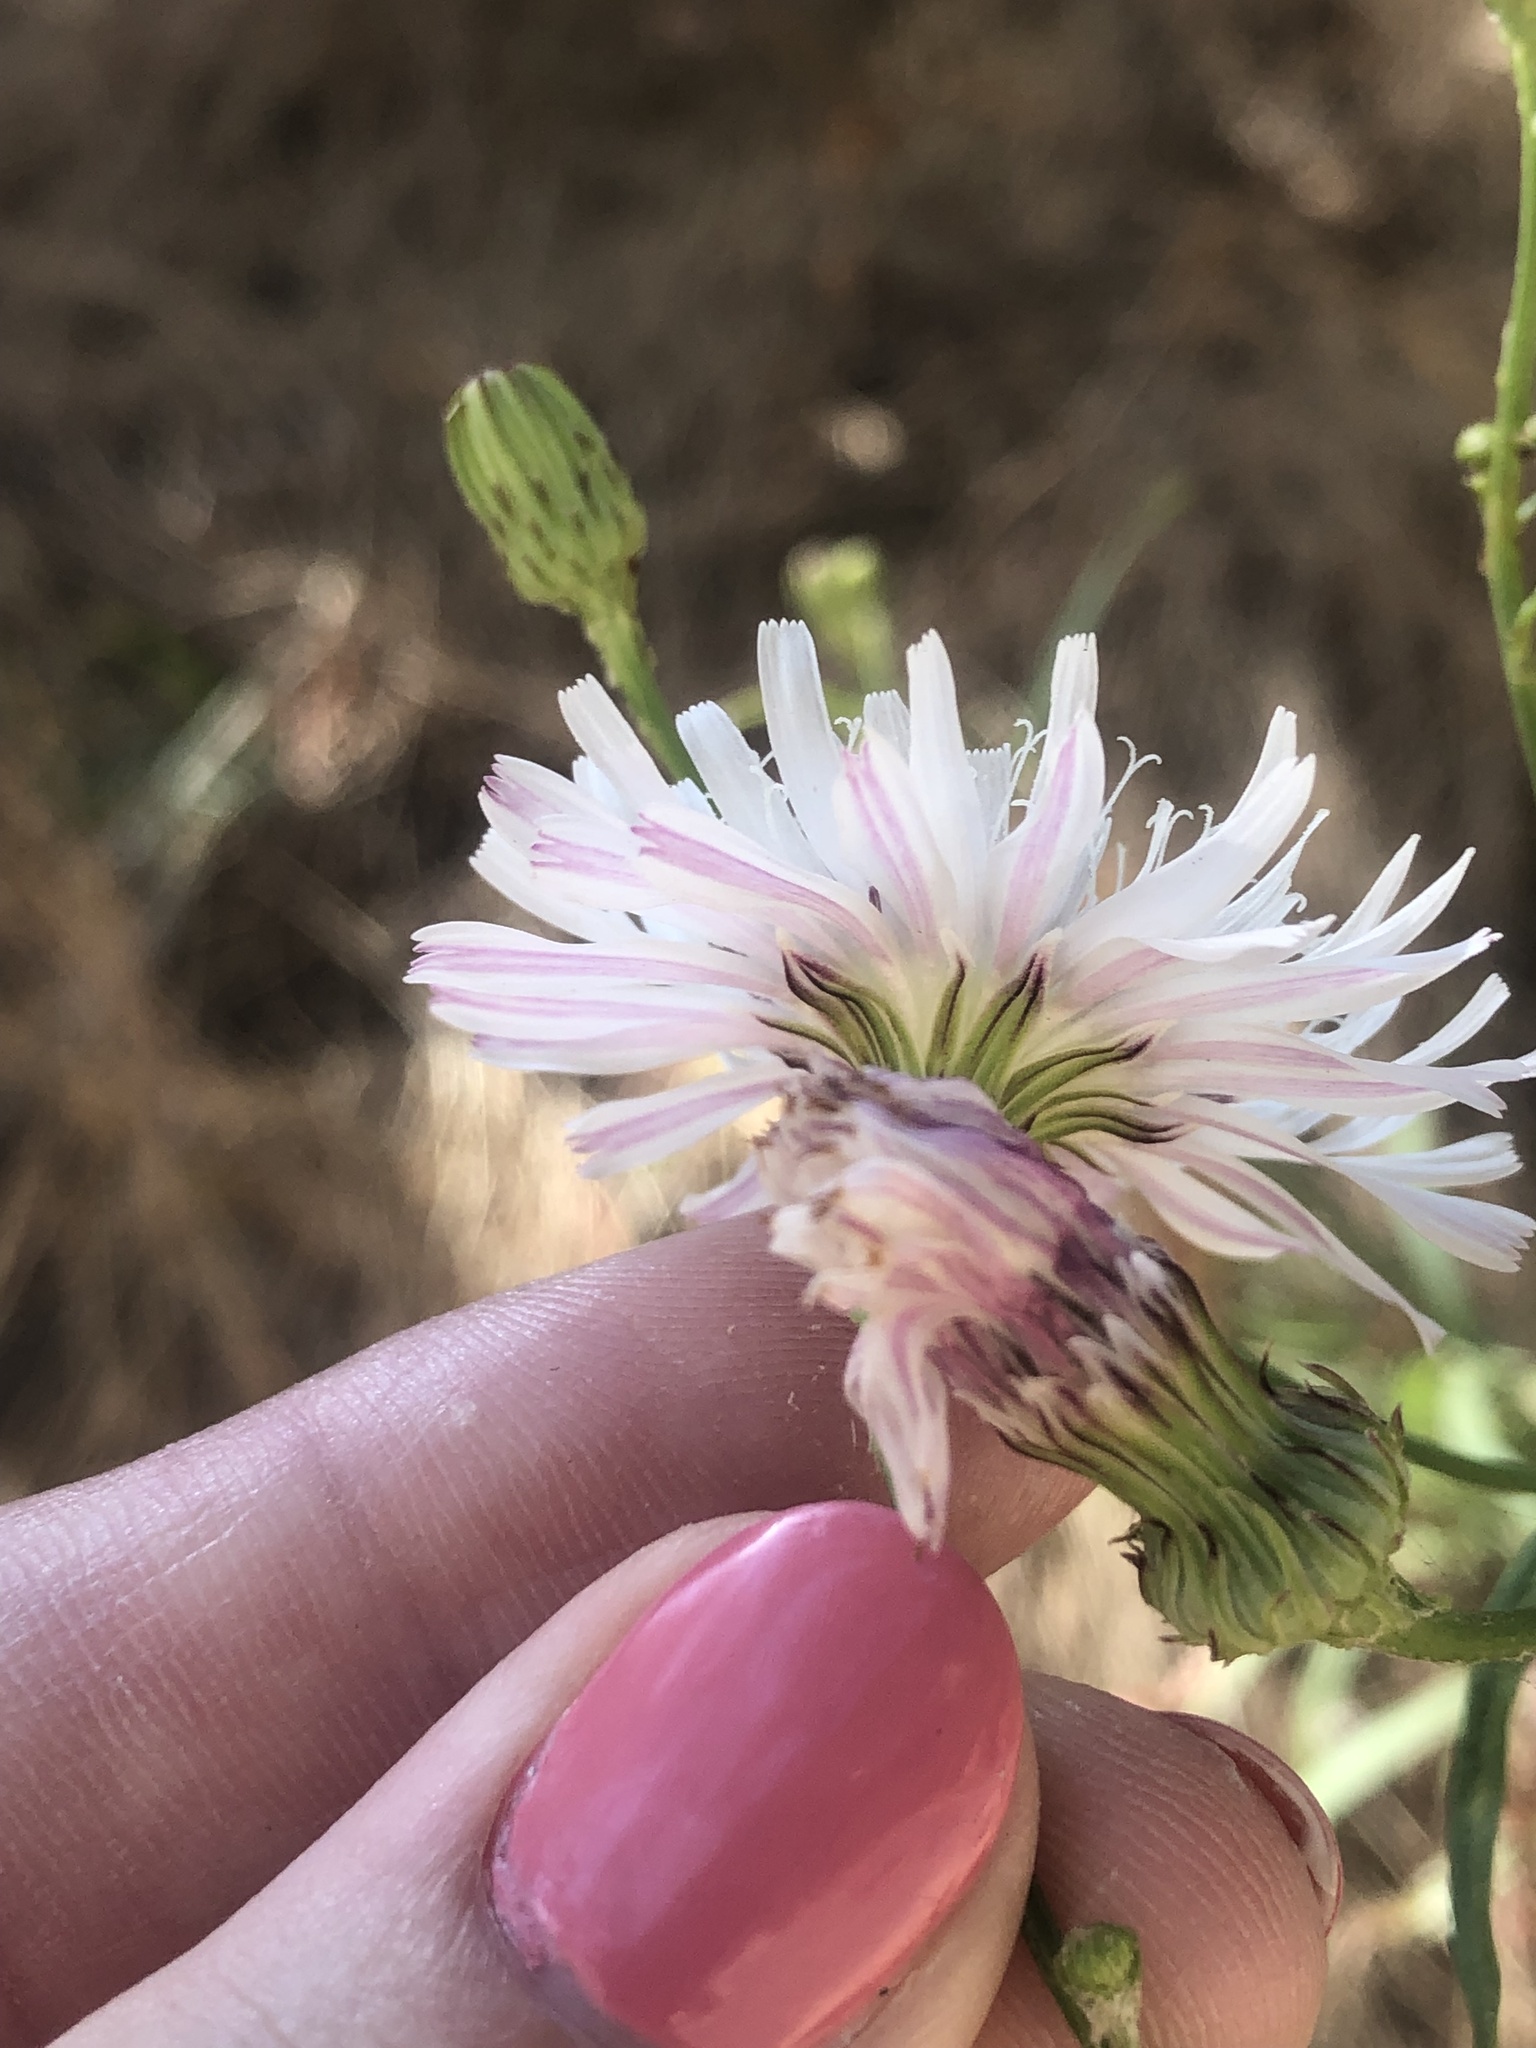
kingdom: Plantae
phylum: Tracheophyta
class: Magnoliopsida
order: Asterales
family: Asteraceae
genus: Malacothrix
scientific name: Malacothrix saxatilis
